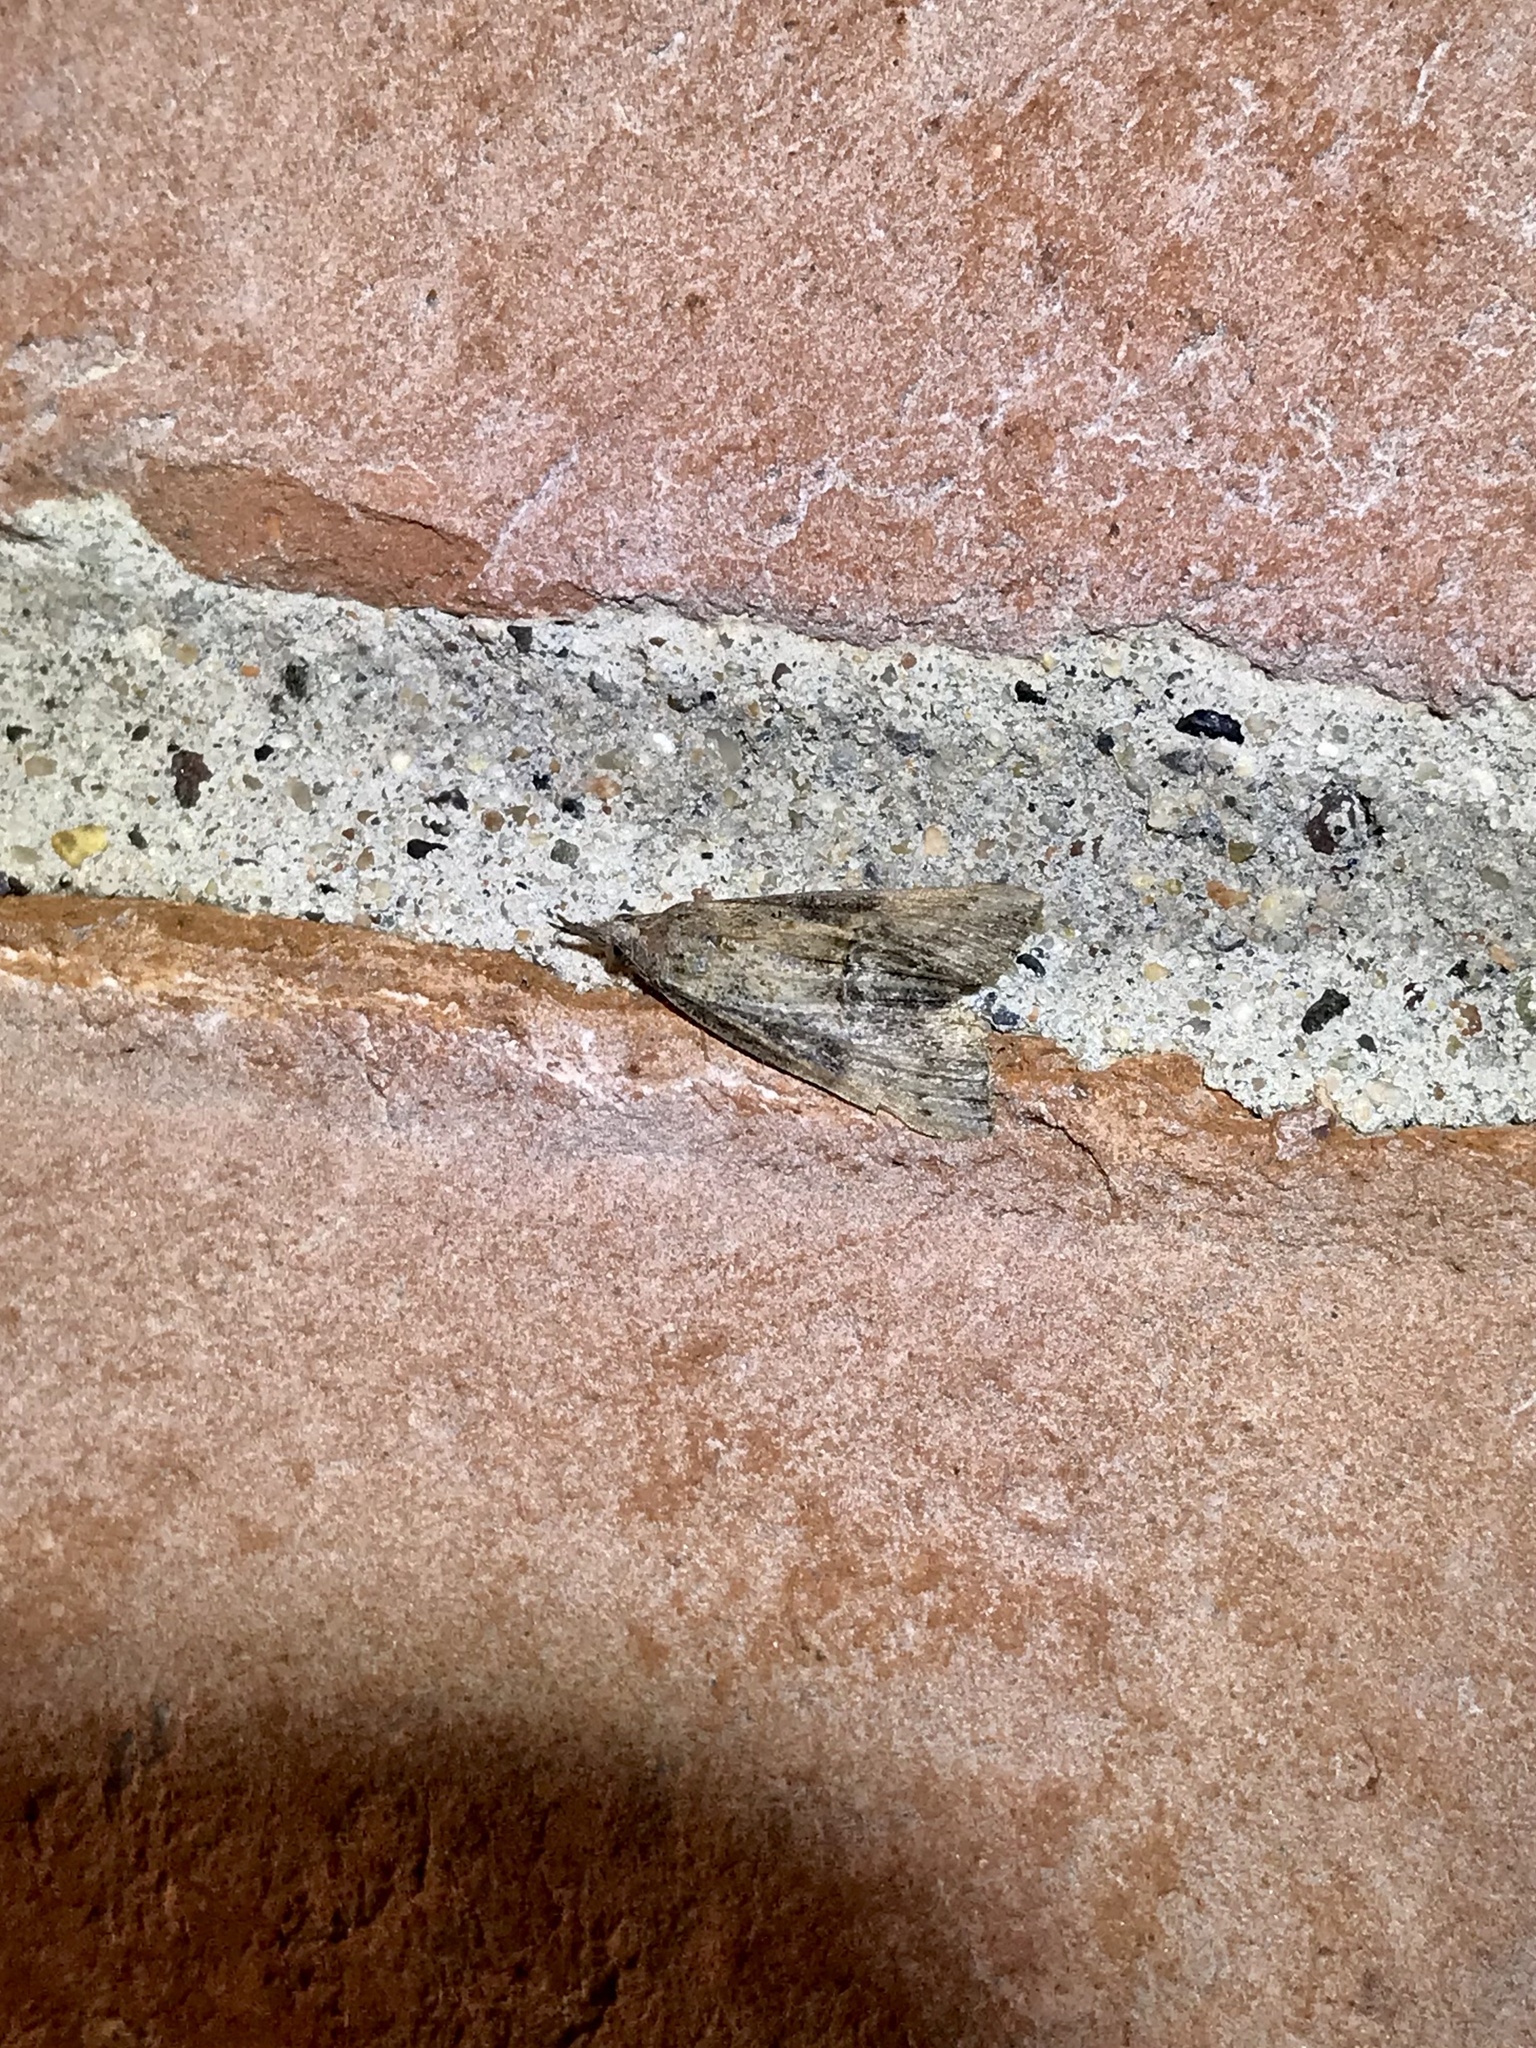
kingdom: Animalia
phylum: Arthropoda
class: Insecta
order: Lepidoptera
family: Erebidae
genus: Hypena
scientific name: Hypena scabra
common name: Green cloverworm
